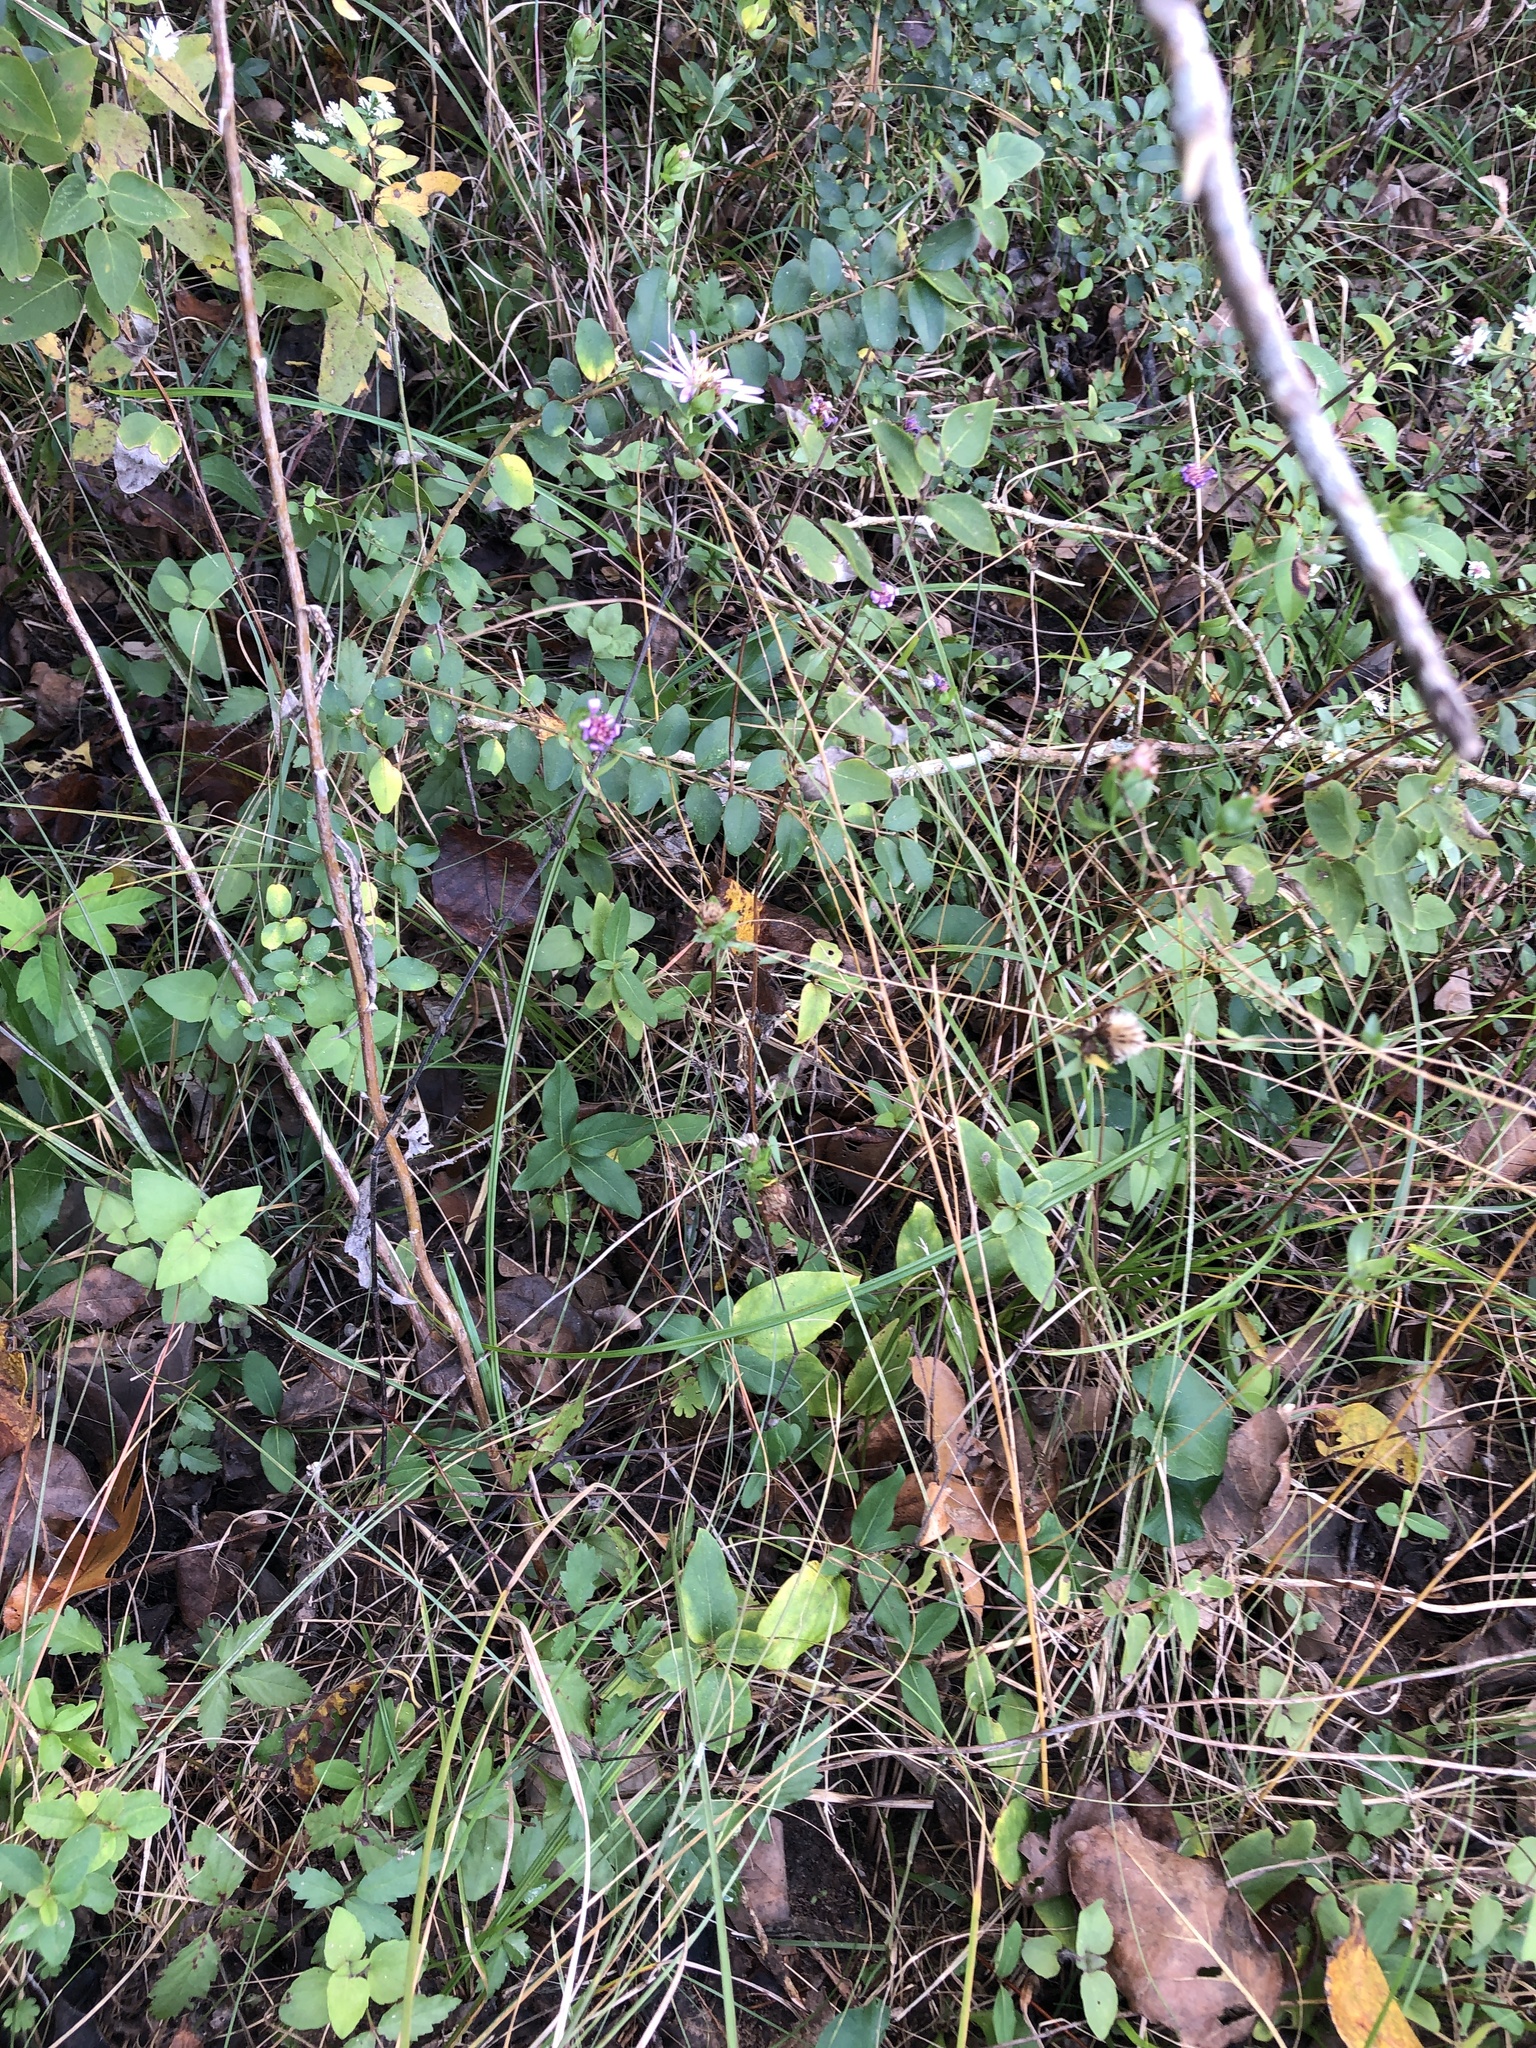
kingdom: Plantae
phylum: Tracheophyta
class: Magnoliopsida
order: Asterales
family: Asteraceae
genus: Symphyotrichum
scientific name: Symphyotrichum pratense
